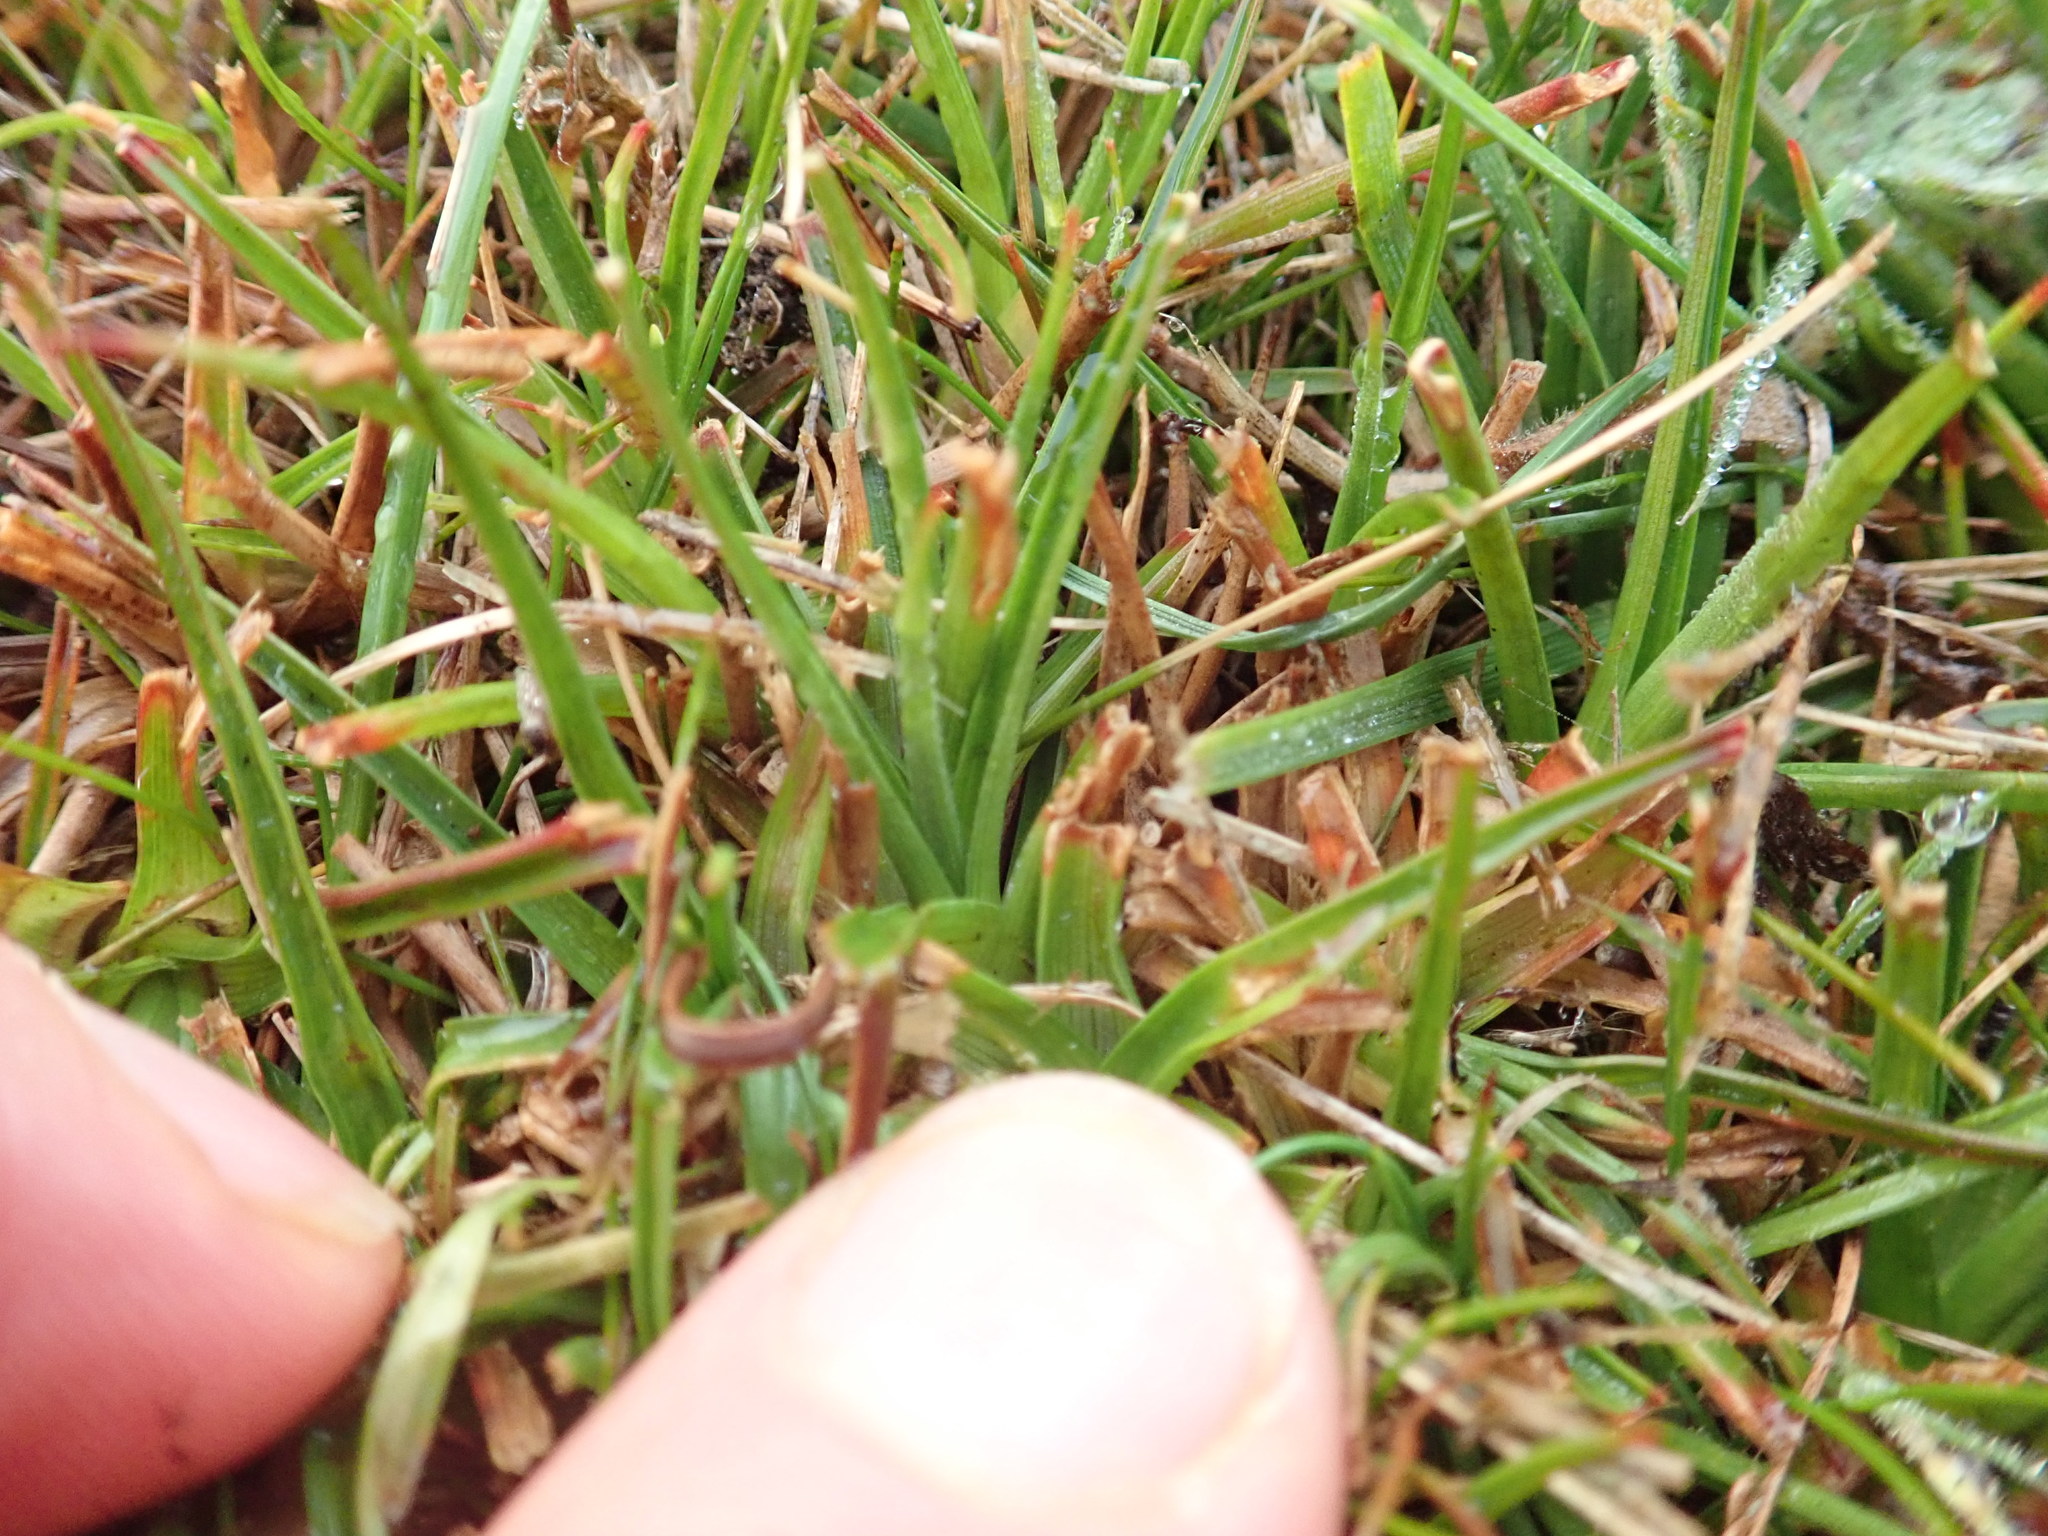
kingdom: Plantae
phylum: Tracheophyta
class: Liliopsida
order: Poales
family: Juncaceae
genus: Juncus
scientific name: Juncus caespiticius
